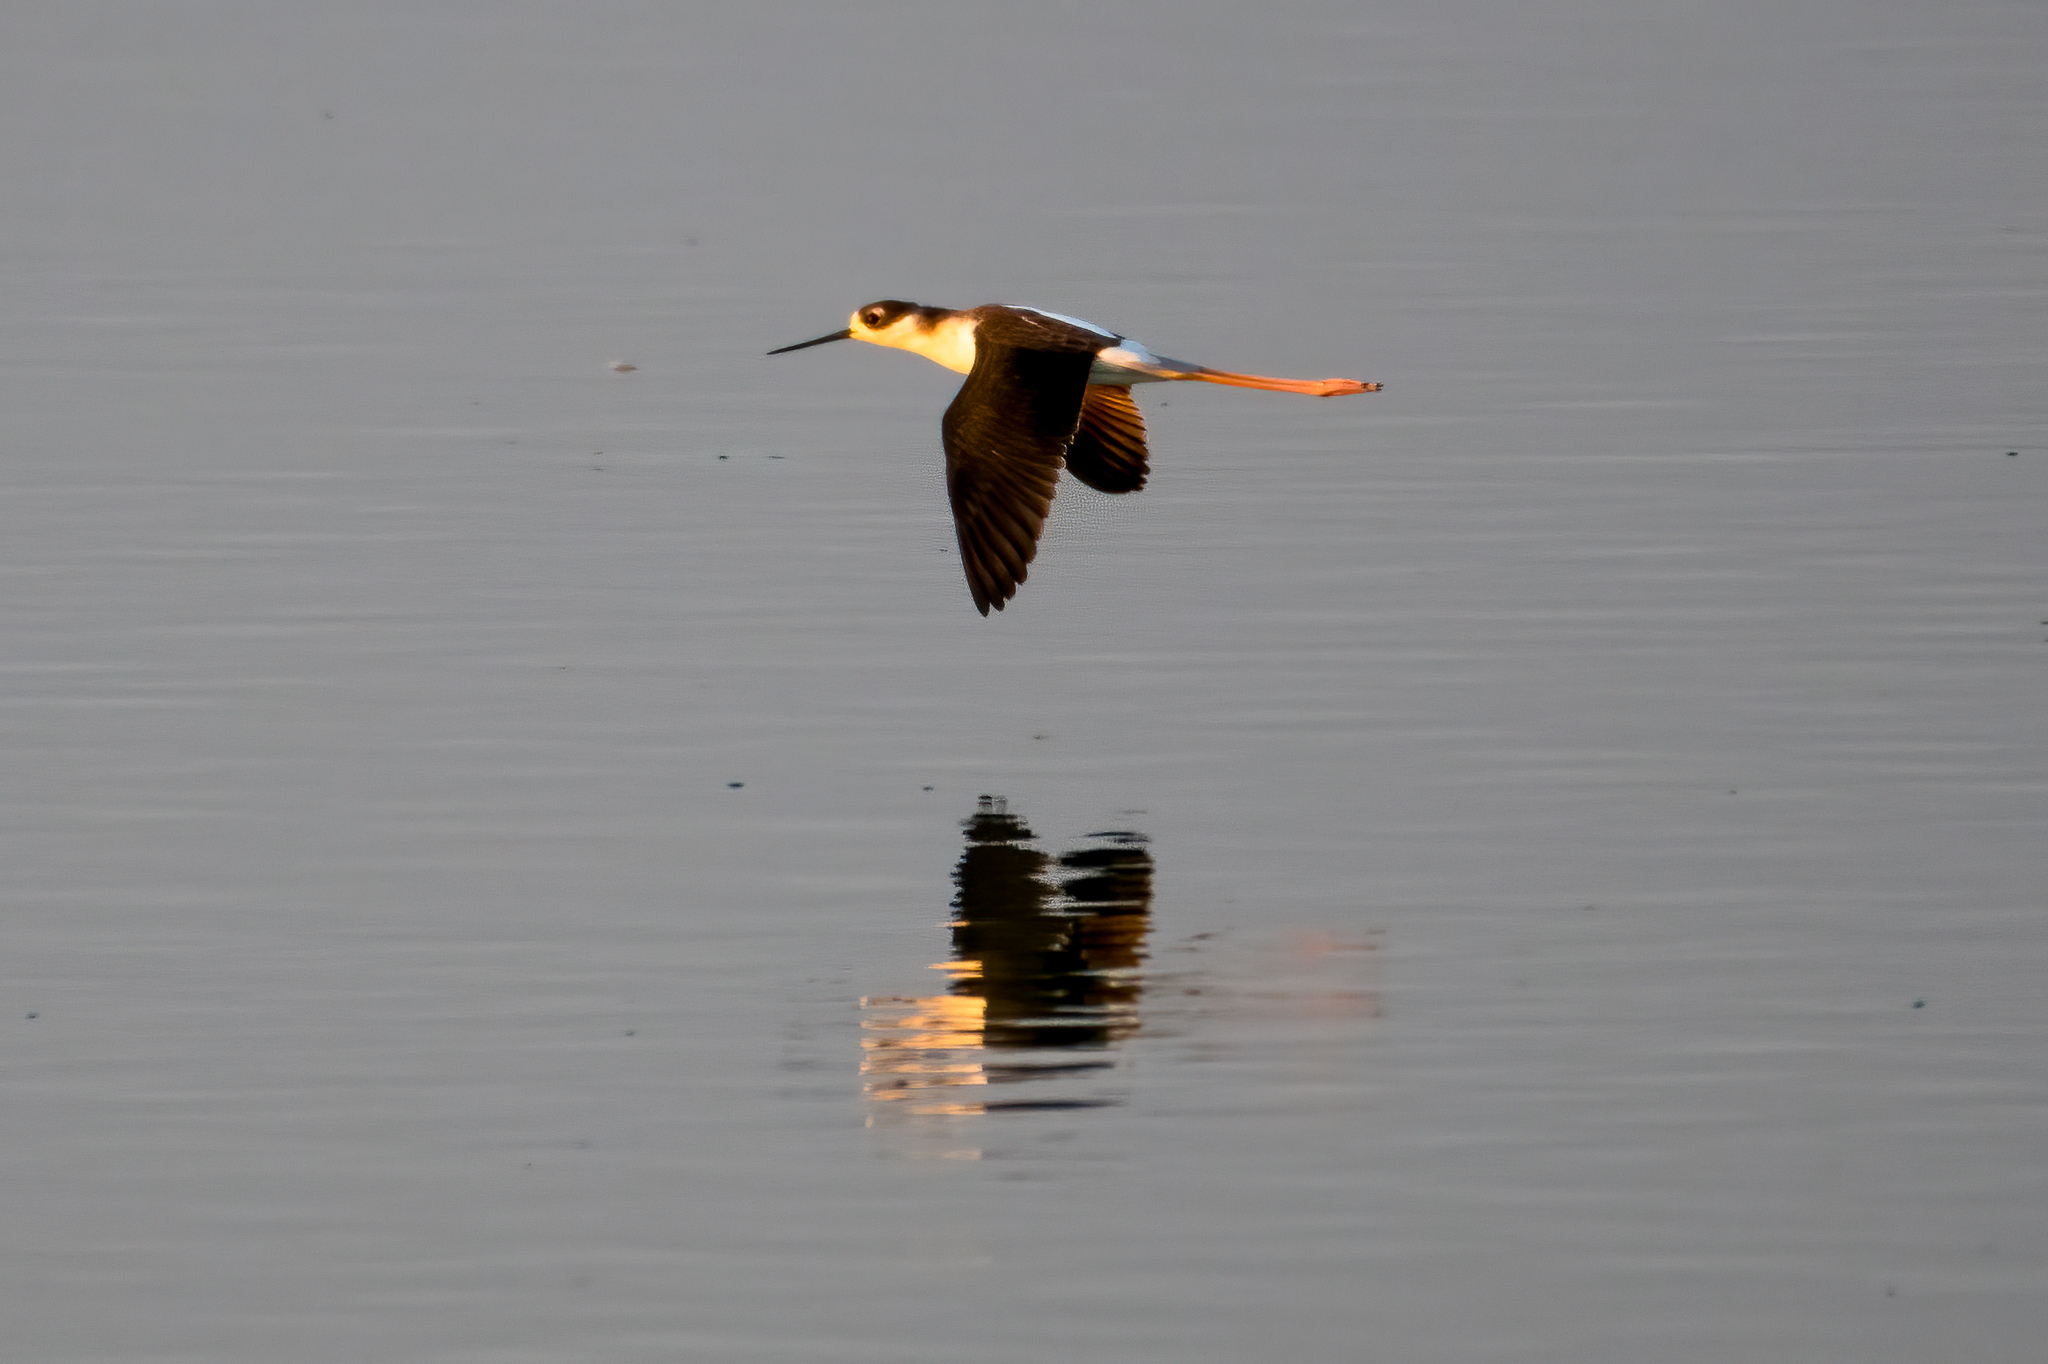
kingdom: Animalia
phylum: Chordata
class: Aves
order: Charadriiformes
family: Recurvirostridae
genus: Himantopus
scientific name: Himantopus mexicanus
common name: Black-necked stilt
